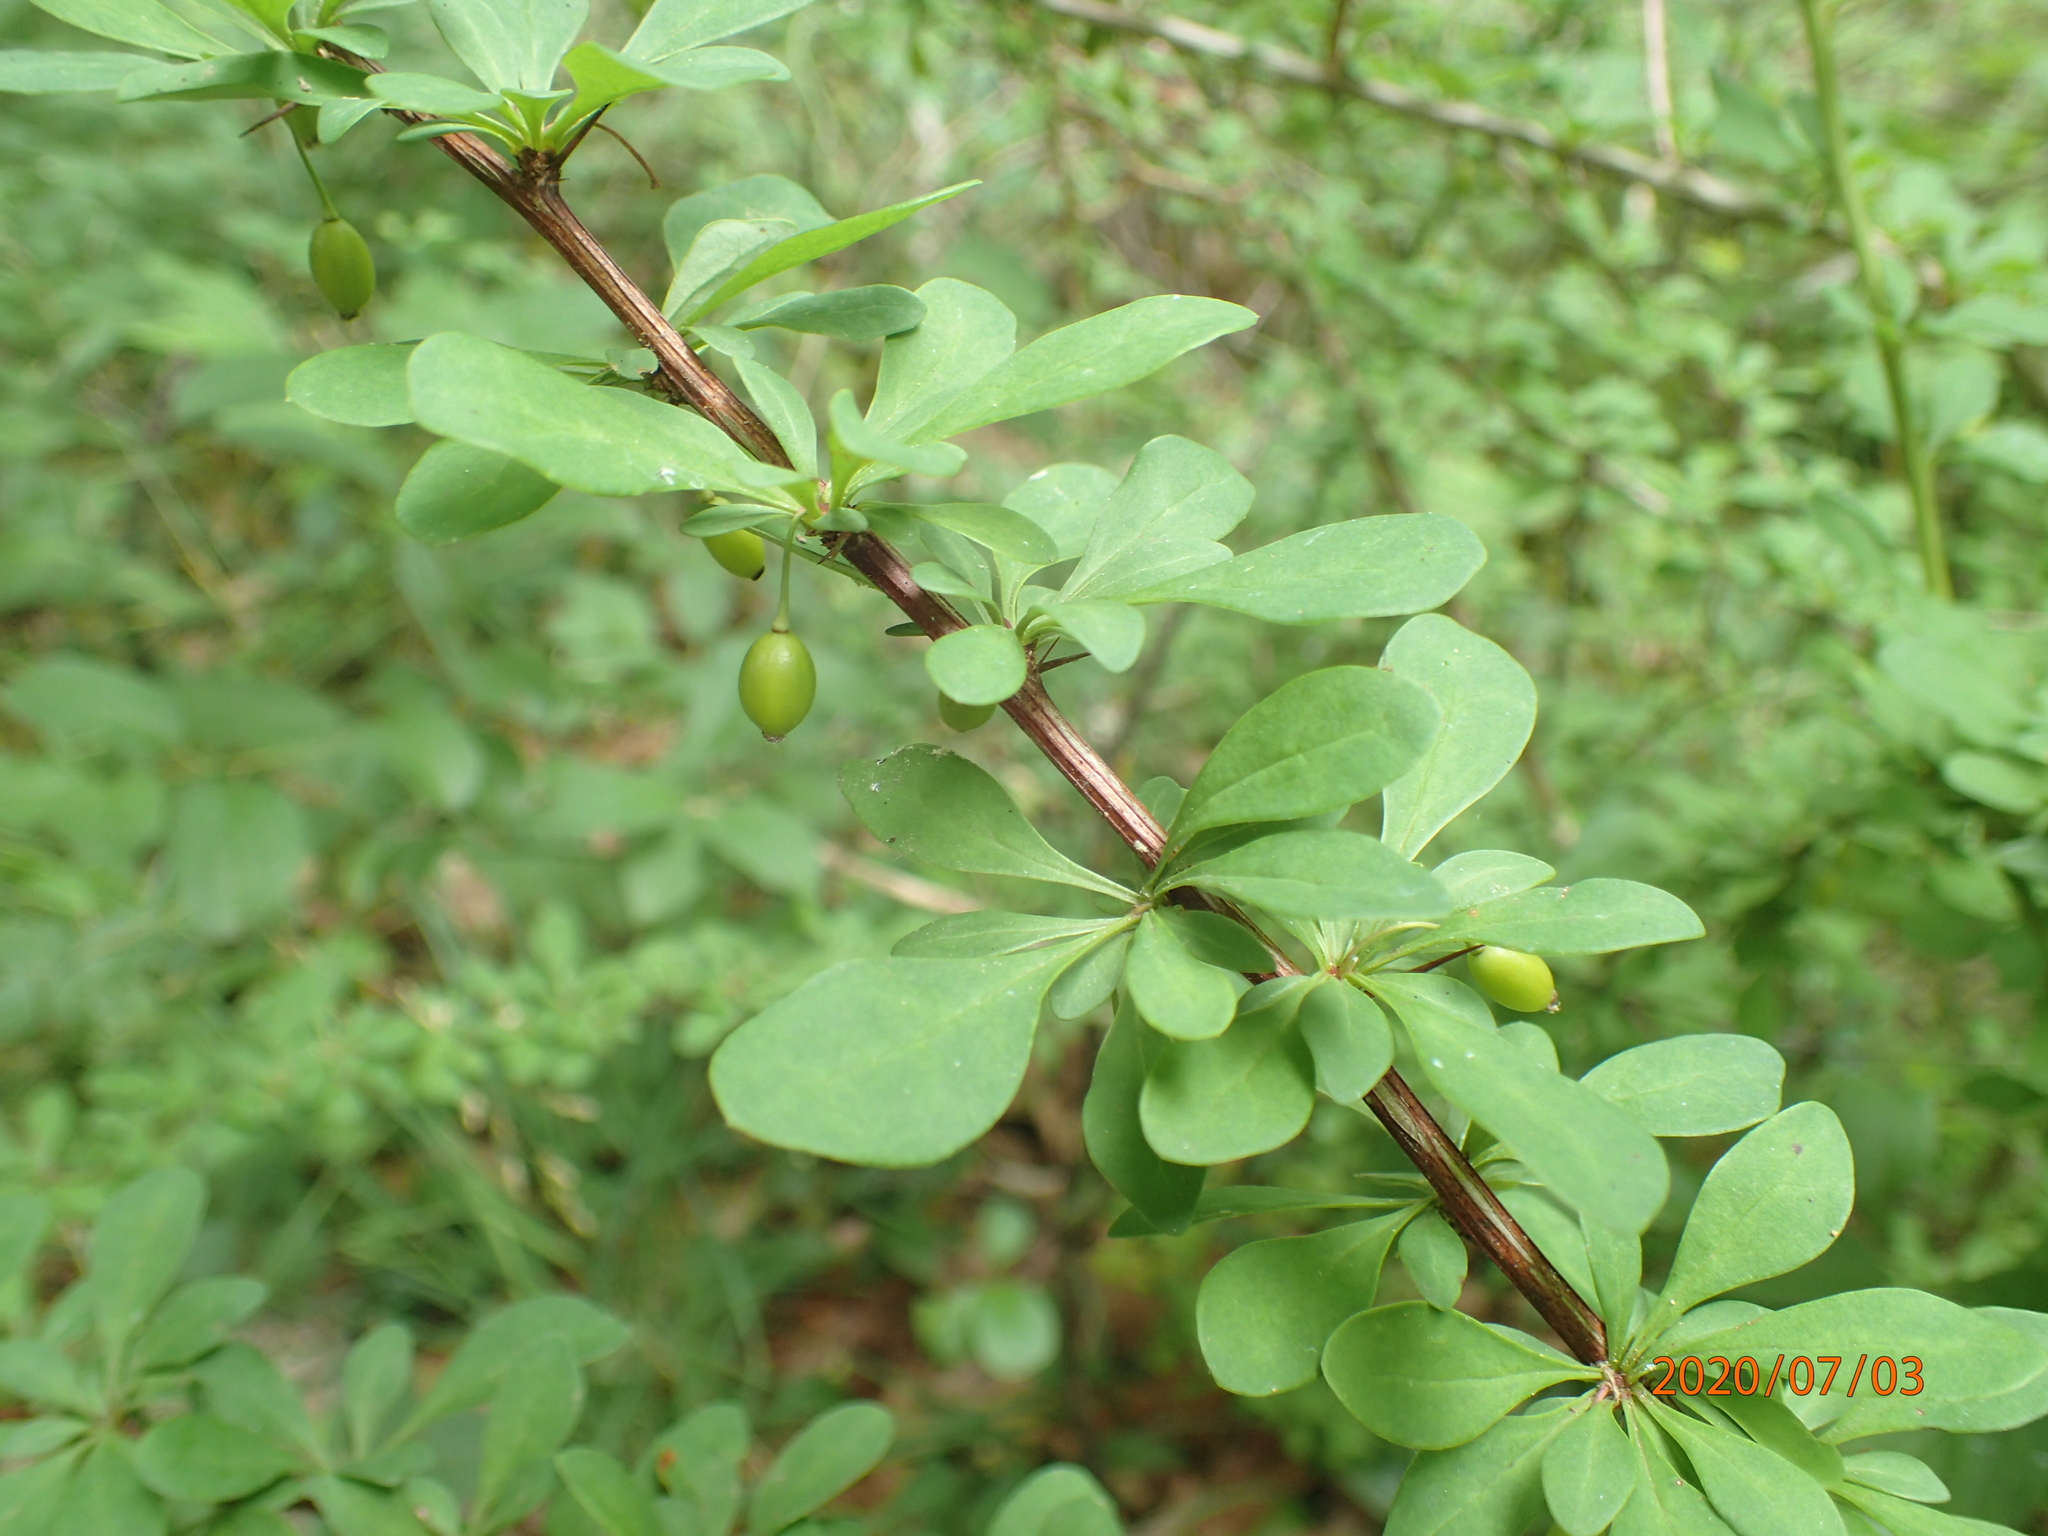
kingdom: Plantae
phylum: Tracheophyta
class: Magnoliopsida
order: Ranunculales
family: Berberidaceae
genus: Berberis
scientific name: Berberis thunbergii
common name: Japanese barberry
